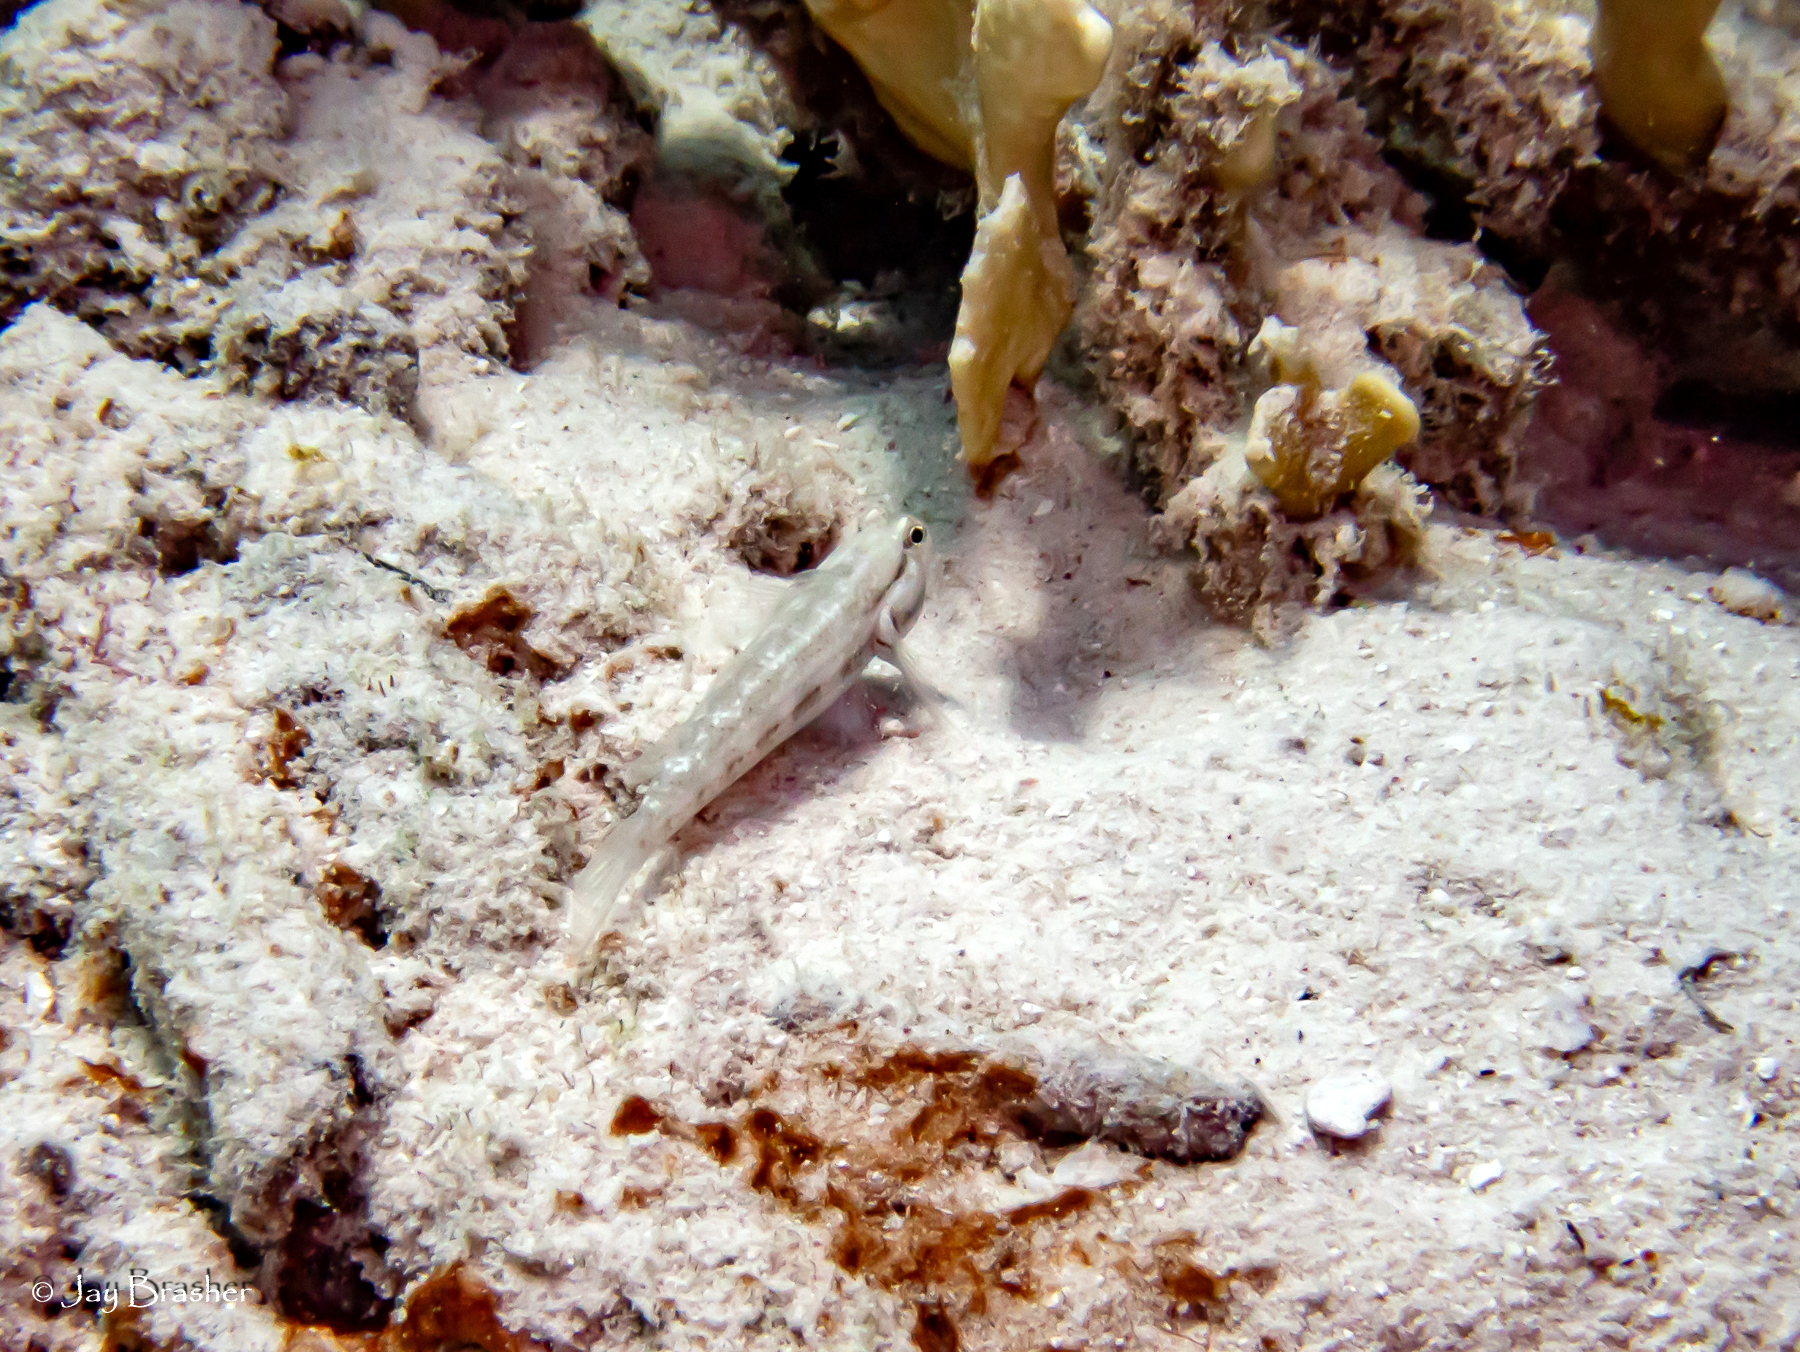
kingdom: Animalia
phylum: Chordata
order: Perciformes
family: Gobiidae
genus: Gnatholepis
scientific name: Gnatholepis thompsoni
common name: Goldspot goby
